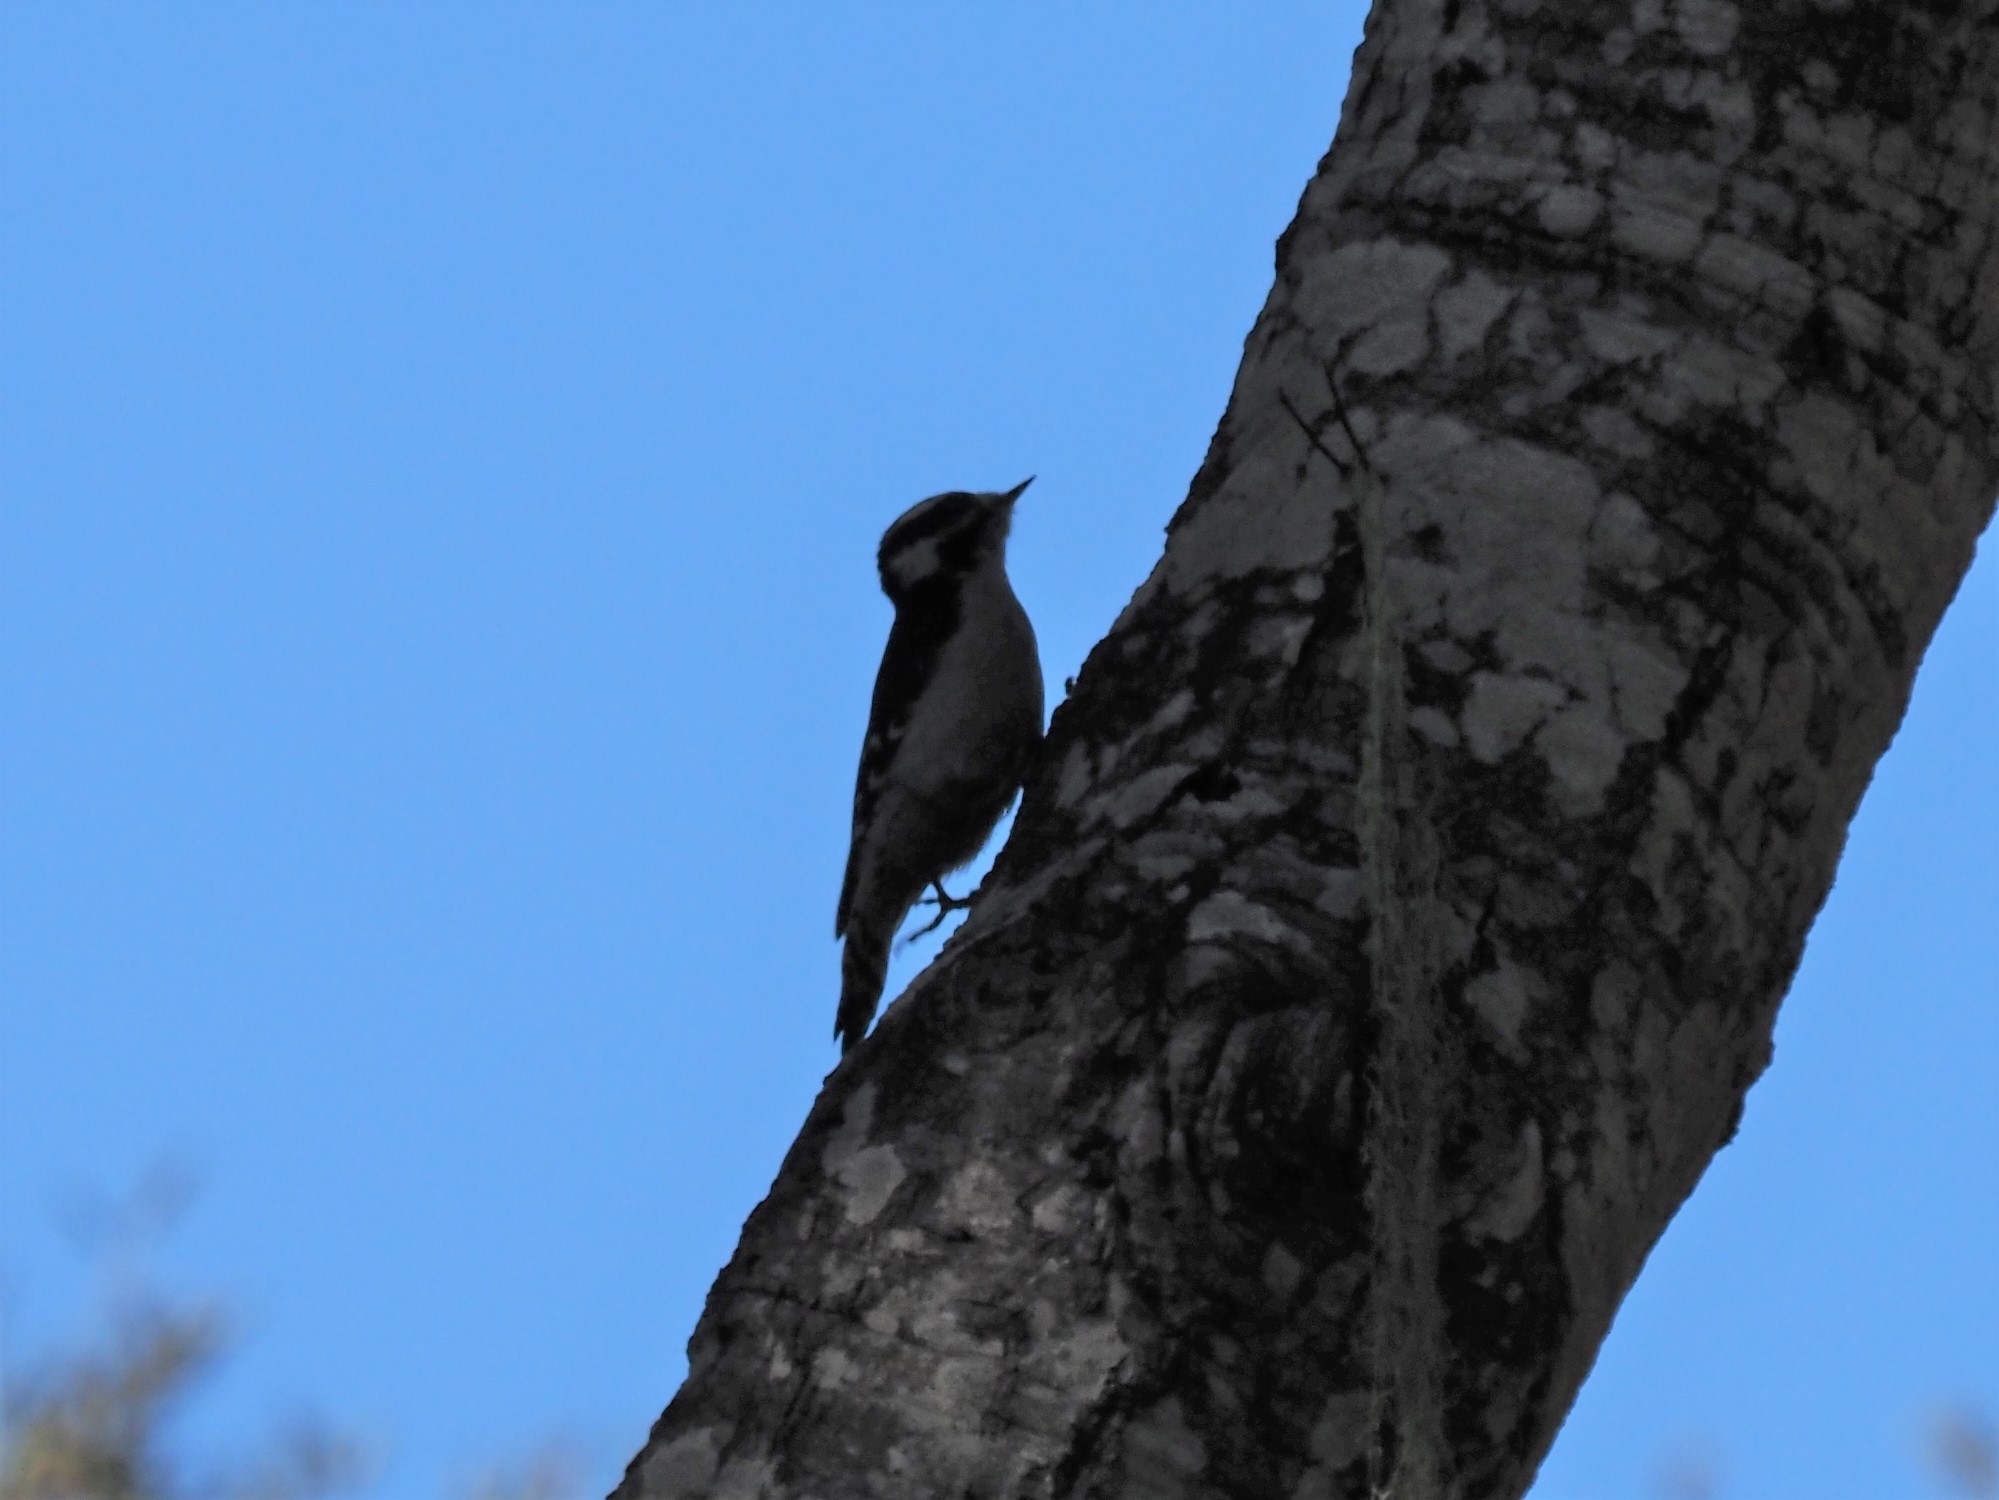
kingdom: Animalia
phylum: Chordata
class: Aves
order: Piciformes
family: Picidae
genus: Dryobates
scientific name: Dryobates pubescens
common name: Downy woodpecker
